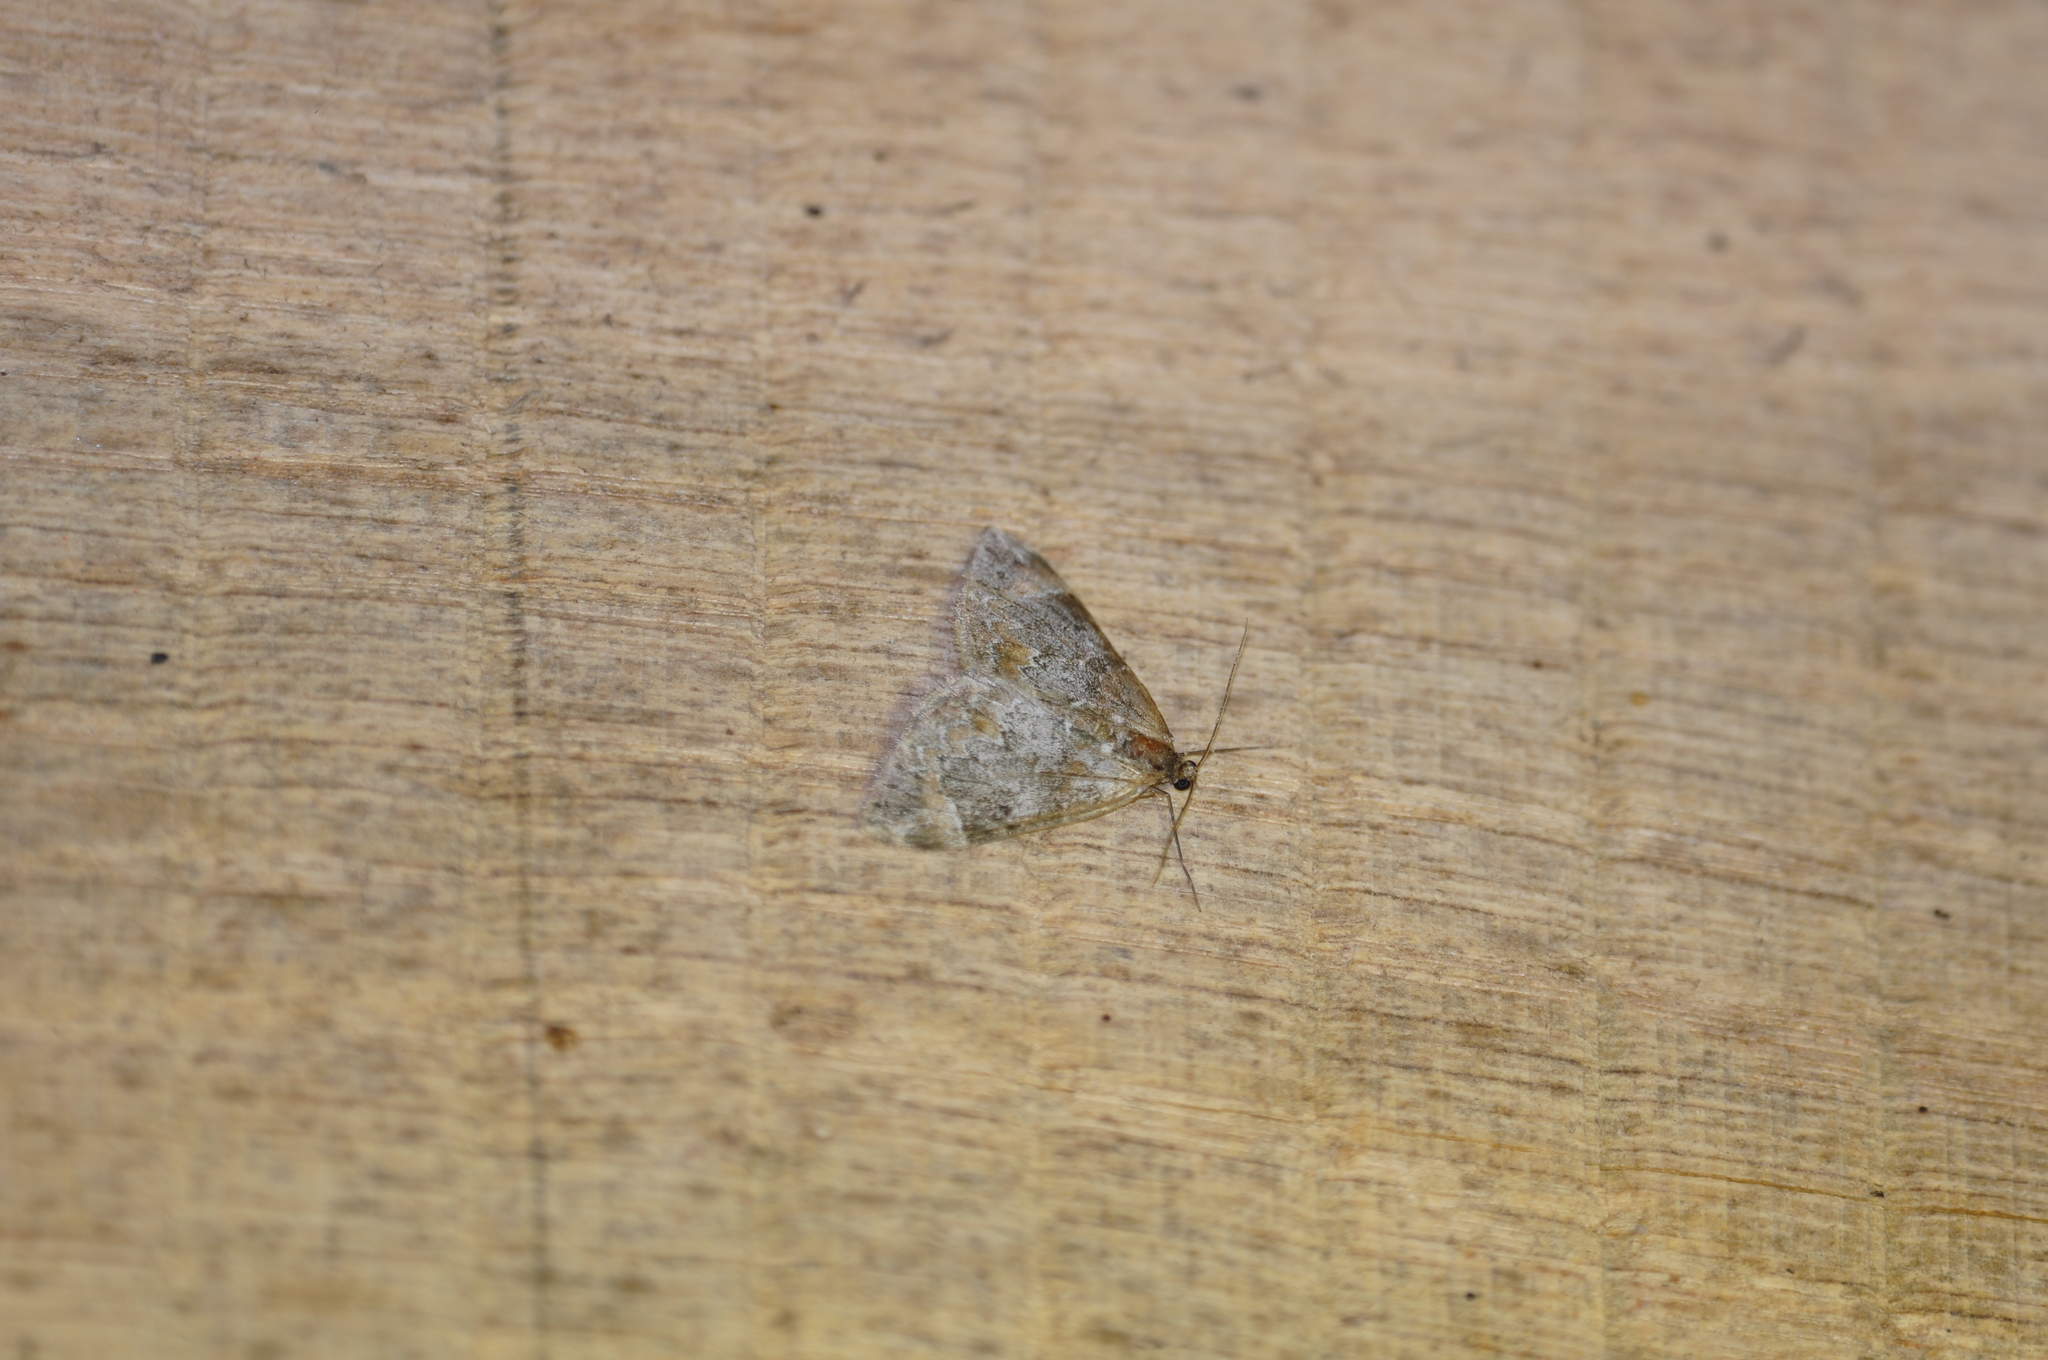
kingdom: Animalia
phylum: Arthropoda
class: Insecta
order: Lepidoptera
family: Geometridae
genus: Dysstroma
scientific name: Dysstroma truncata
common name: Common marbled carpet
